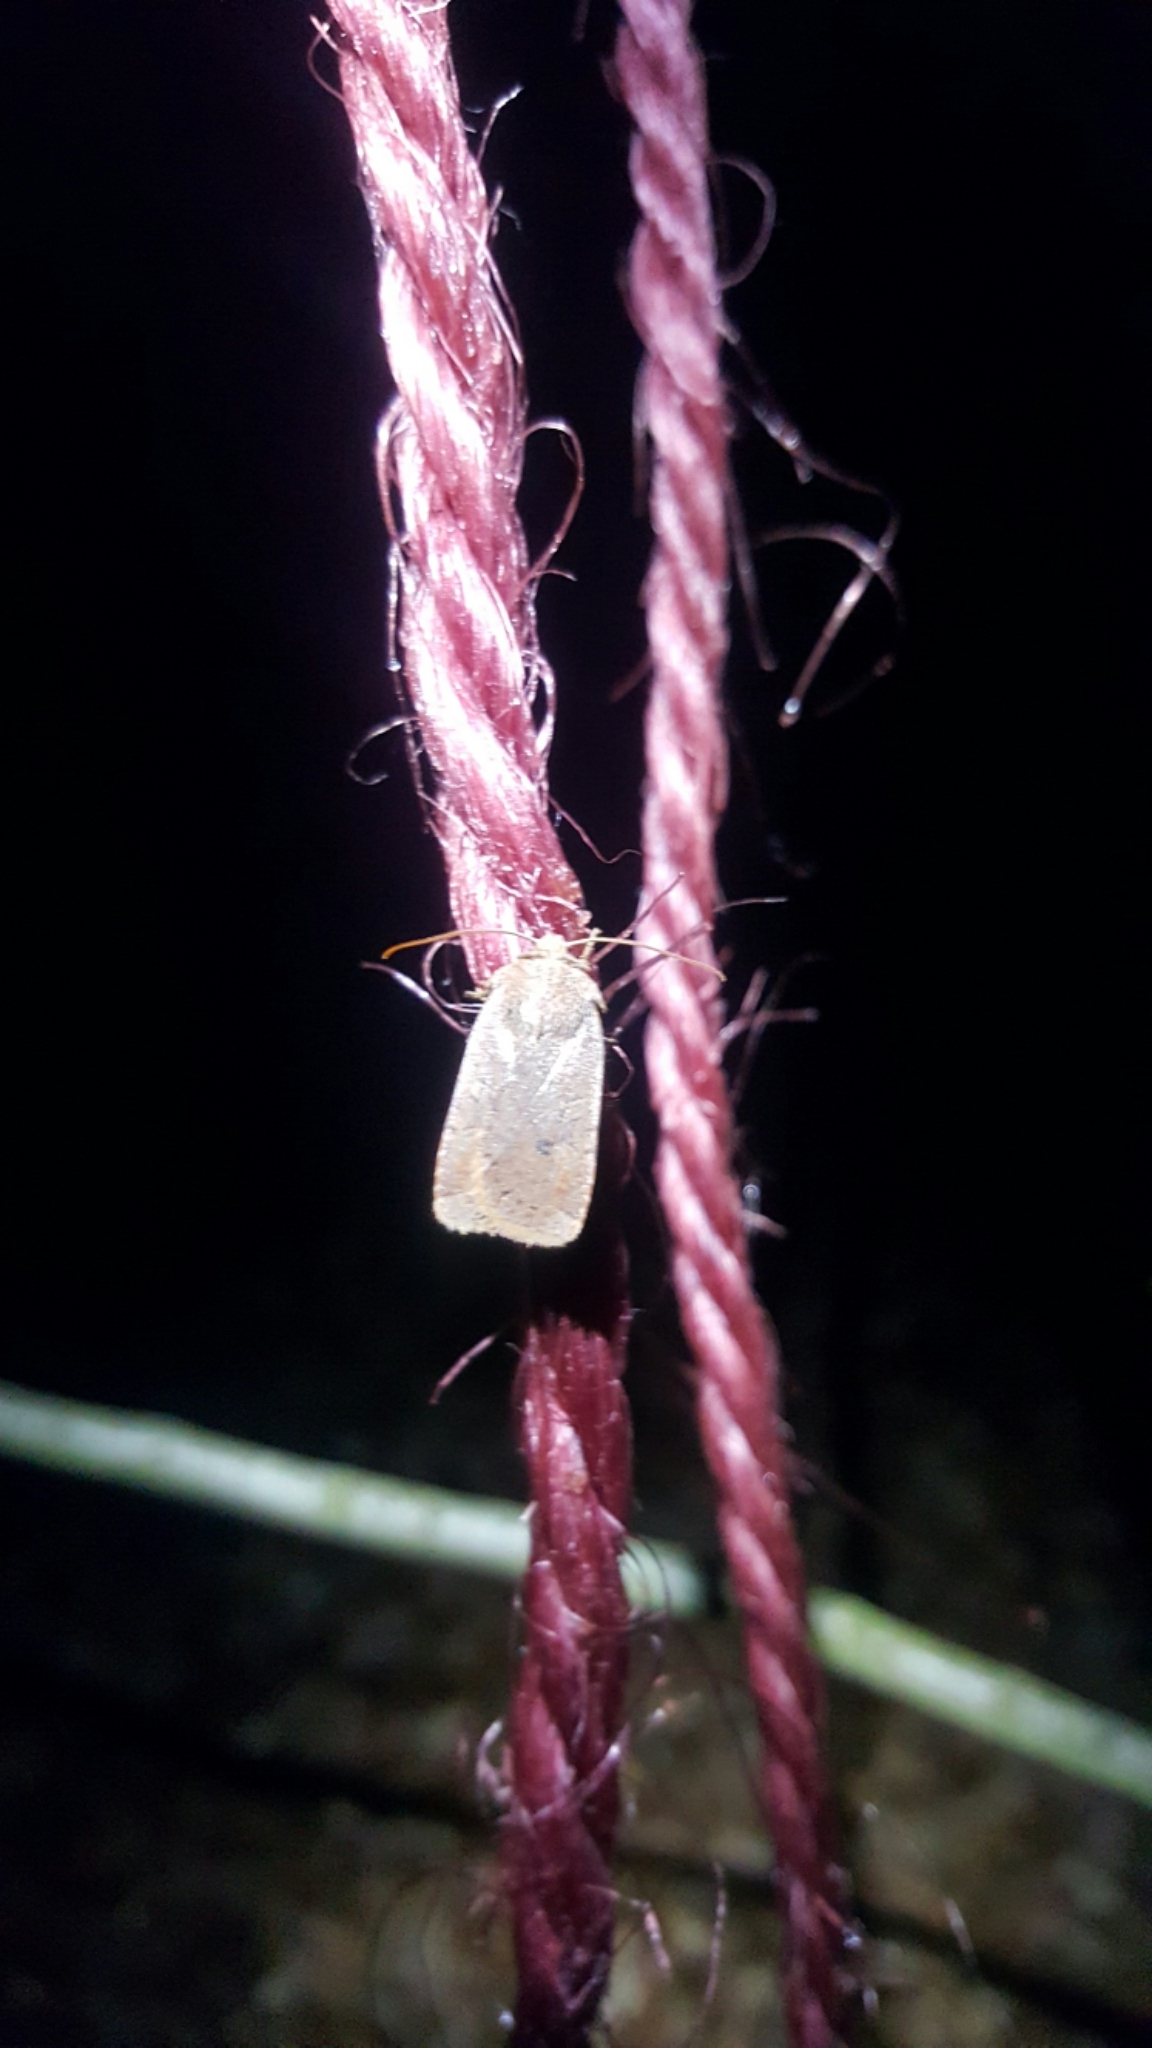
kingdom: Animalia
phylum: Arthropoda
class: Insecta
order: Lepidoptera
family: Noctuidae
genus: Conistra
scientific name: Conistra vaccinii
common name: Chestnut
